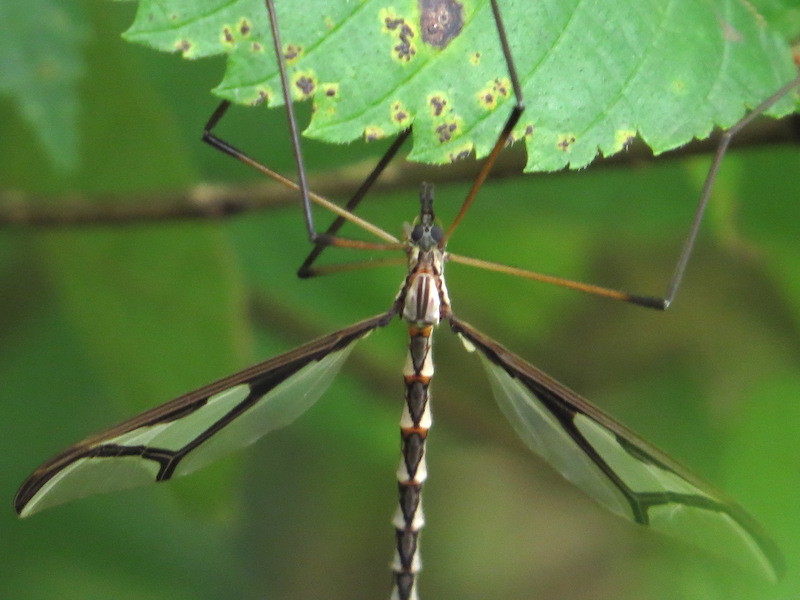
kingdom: Animalia
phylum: Arthropoda
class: Insecta
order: Diptera
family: Pediciidae
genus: Pedicia
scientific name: Pedicia albivitta
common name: Giant eastern crane fly
